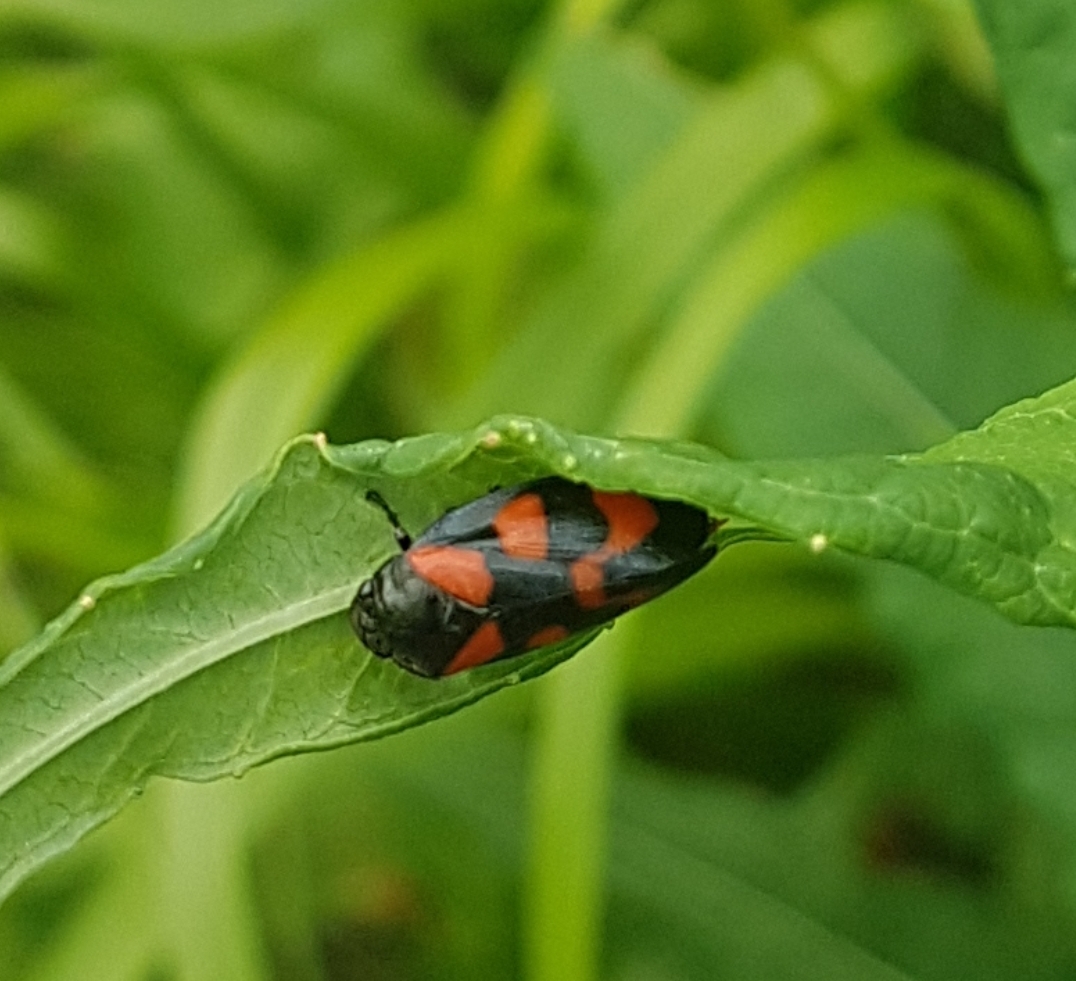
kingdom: Animalia
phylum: Arthropoda
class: Insecta
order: Hemiptera
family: Cercopidae
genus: Cercopis
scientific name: Cercopis vulnerata
